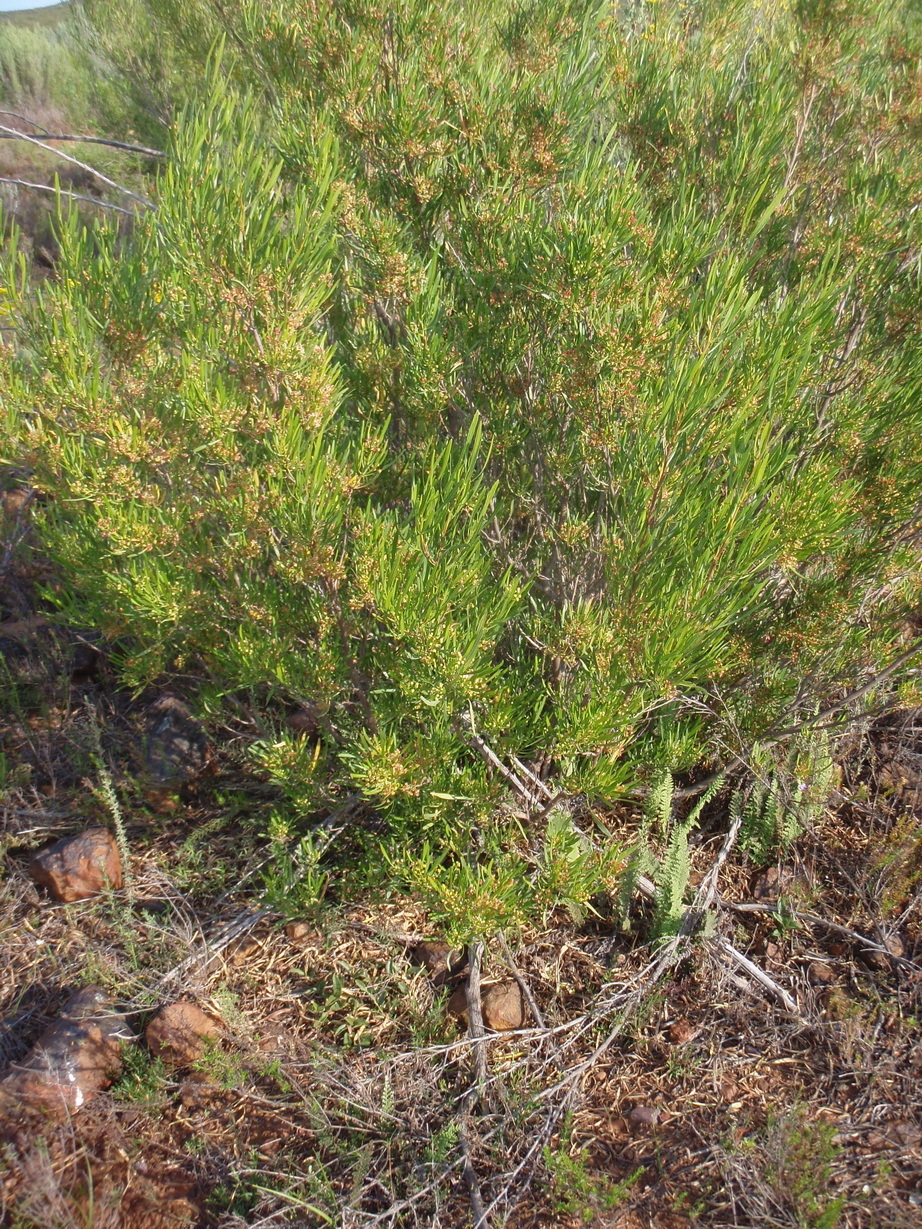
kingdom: Plantae
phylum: Tracheophyta
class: Magnoliopsida
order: Sapindales
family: Sapindaceae
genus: Dodonaea
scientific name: Dodonaea viscosa
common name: Hopbush
